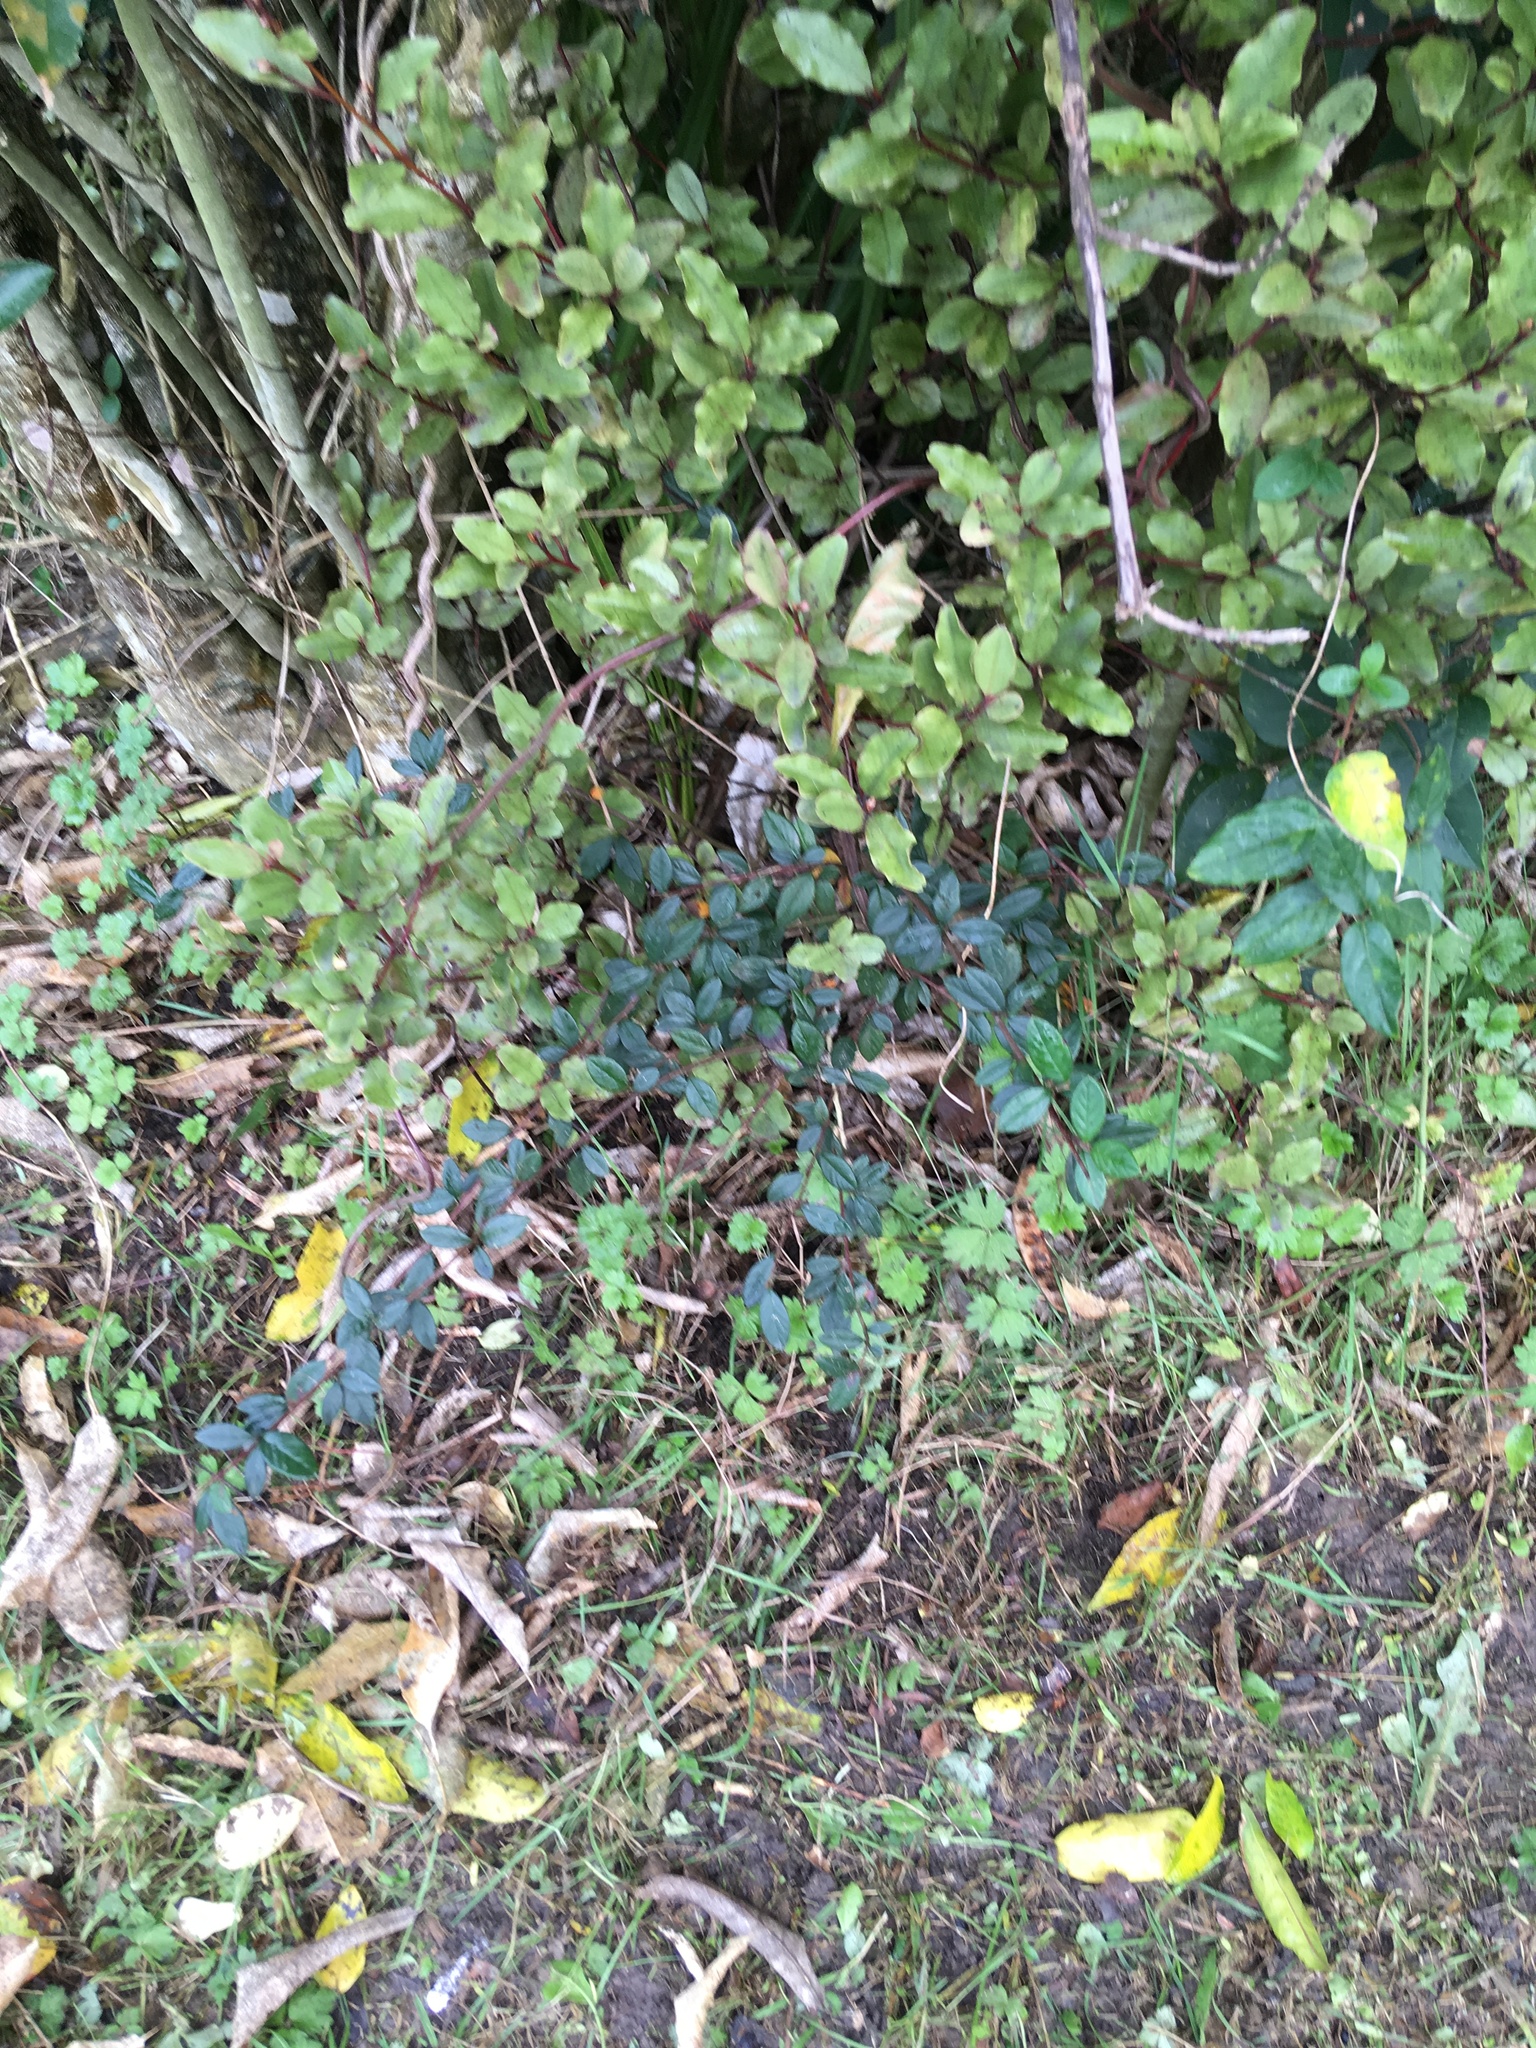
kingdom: Plantae
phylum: Tracheophyta
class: Magnoliopsida
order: Ericales
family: Primulaceae
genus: Myrsine
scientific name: Myrsine australis
